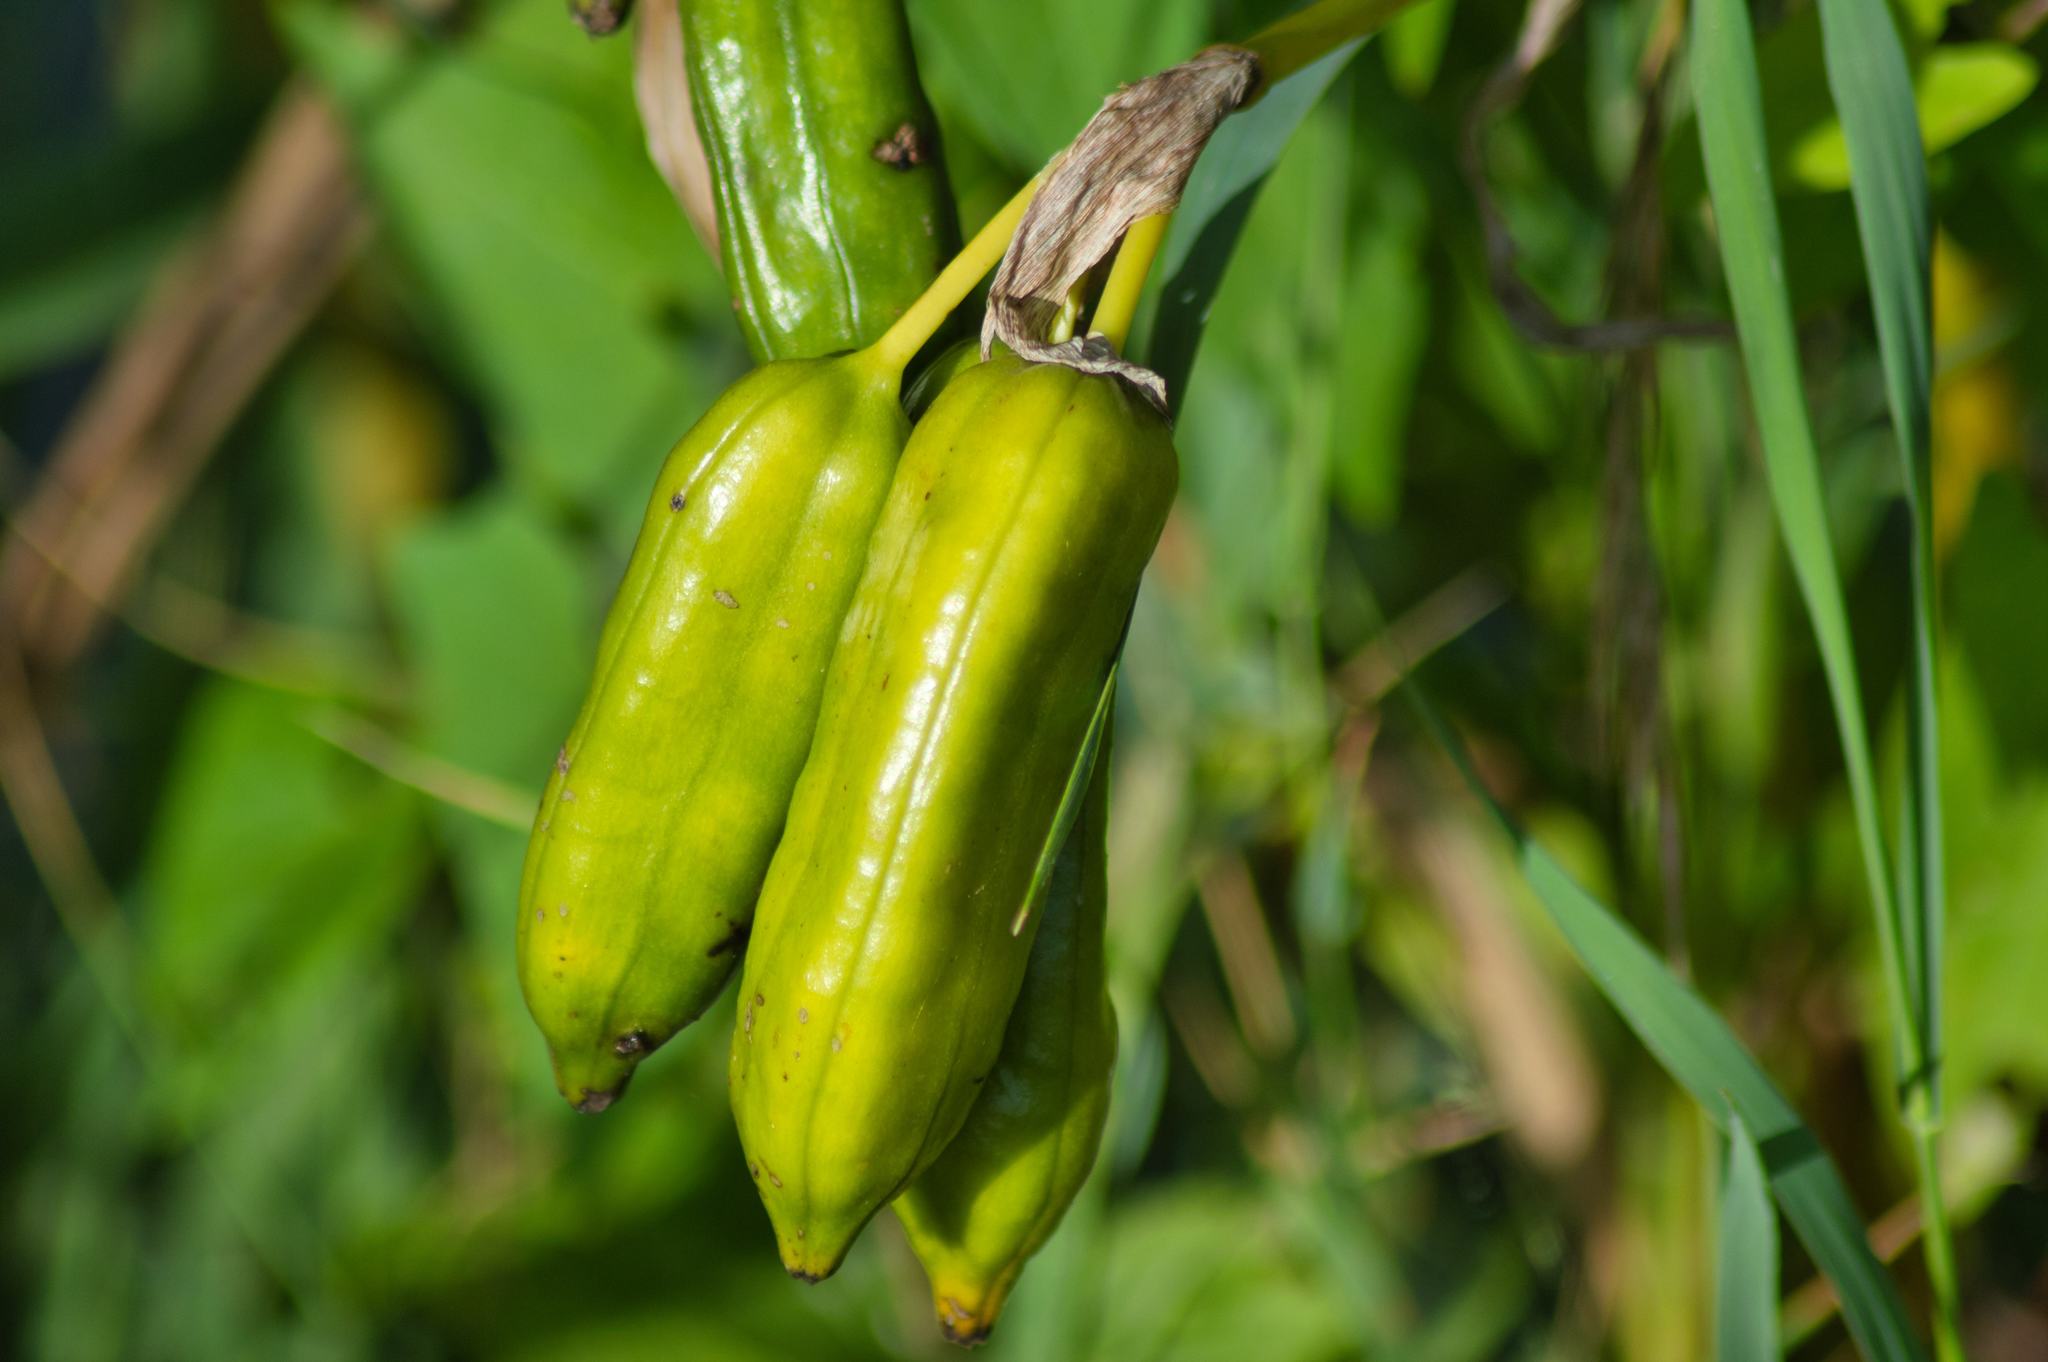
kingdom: Plantae
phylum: Tracheophyta
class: Liliopsida
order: Asparagales
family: Iridaceae
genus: Iris
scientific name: Iris pseudacorus
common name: Yellow flag
